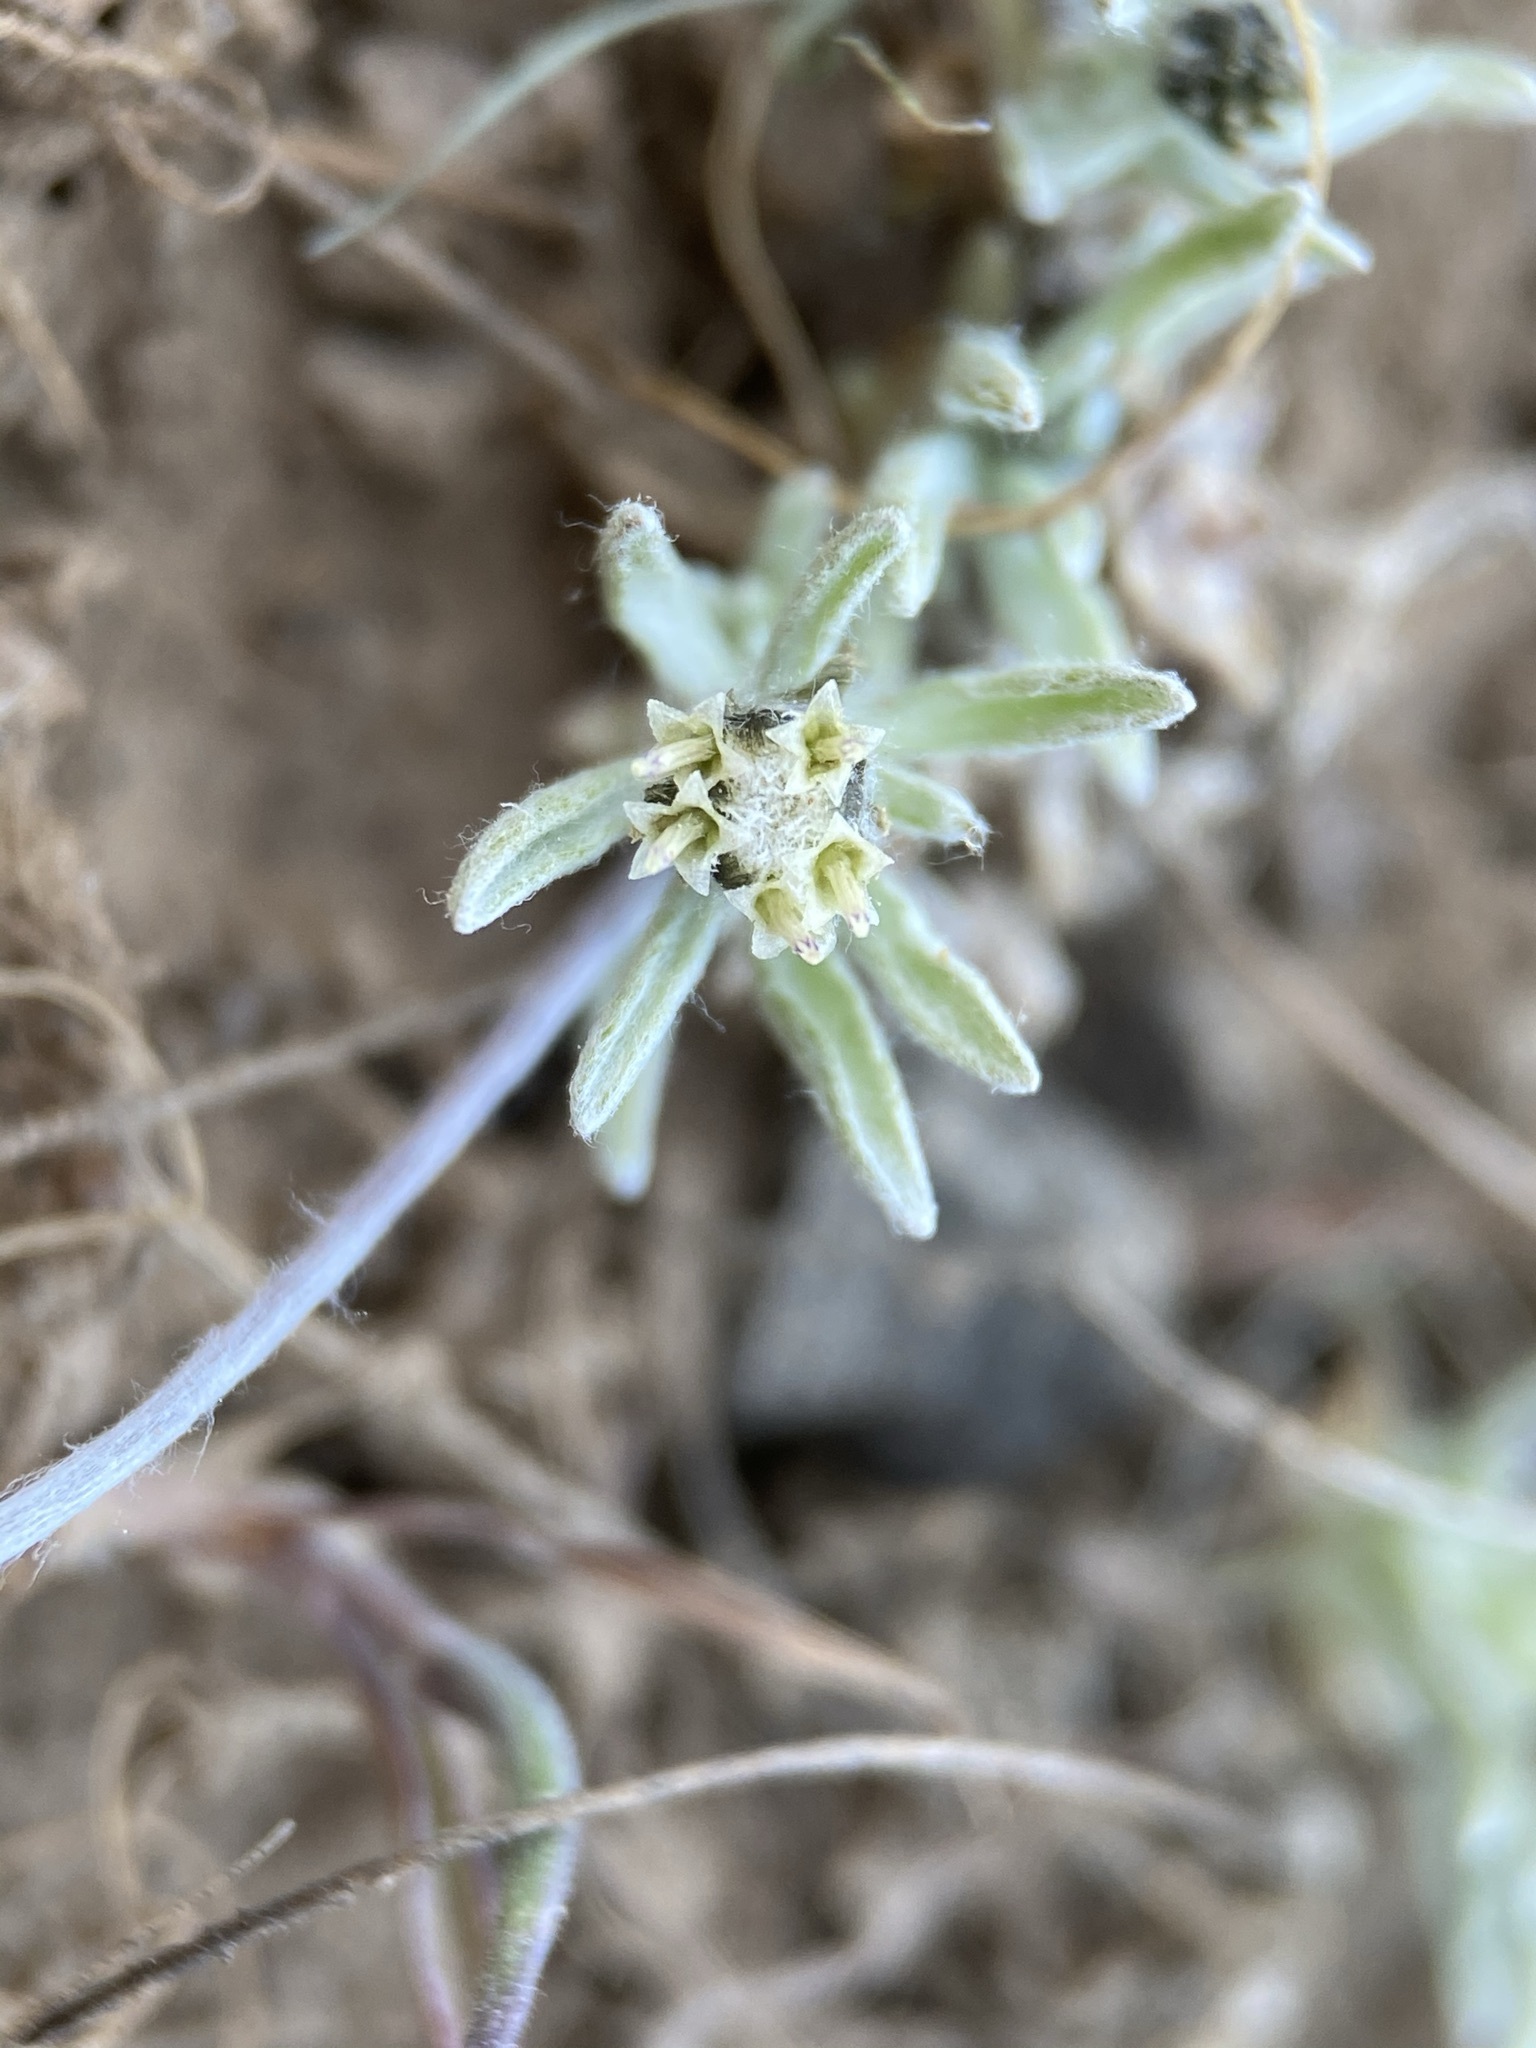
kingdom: Plantae
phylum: Tracheophyta
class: Magnoliopsida
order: Asterales
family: Asteraceae
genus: Antennaria
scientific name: Antennaria flagellaris
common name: Whip pussytoes
